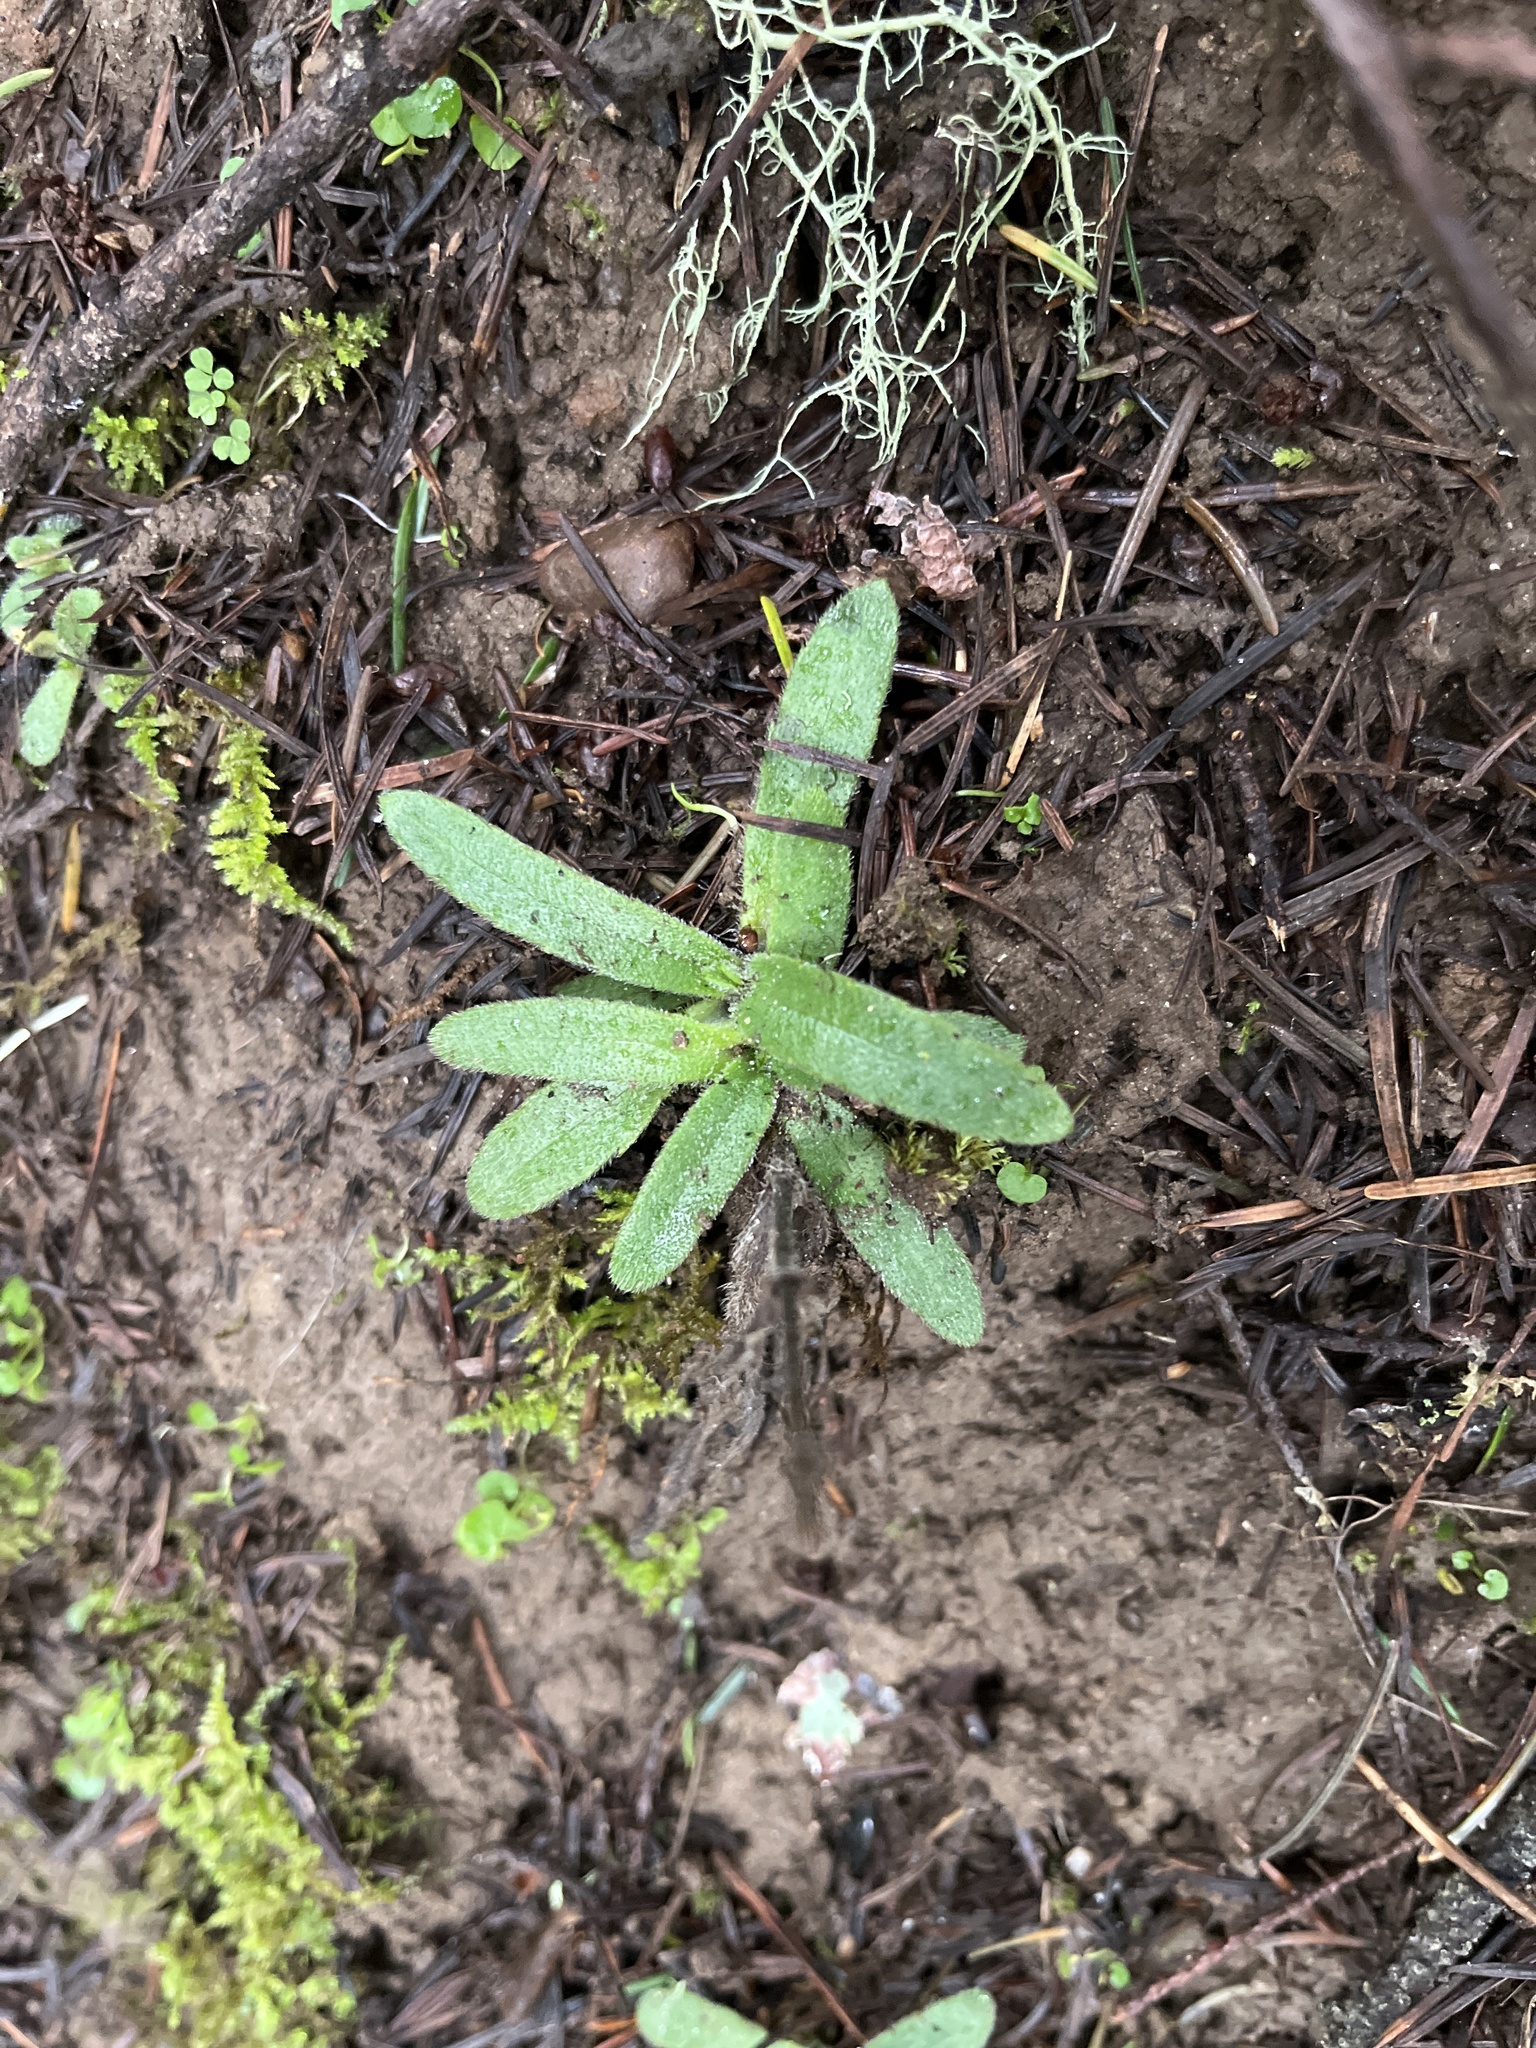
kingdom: Plantae
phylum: Tracheophyta
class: Magnoliopsida
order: Asterales
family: Asteraceae
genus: Anisocarpus
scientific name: Anisocarpus madioides
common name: Woodland madia
